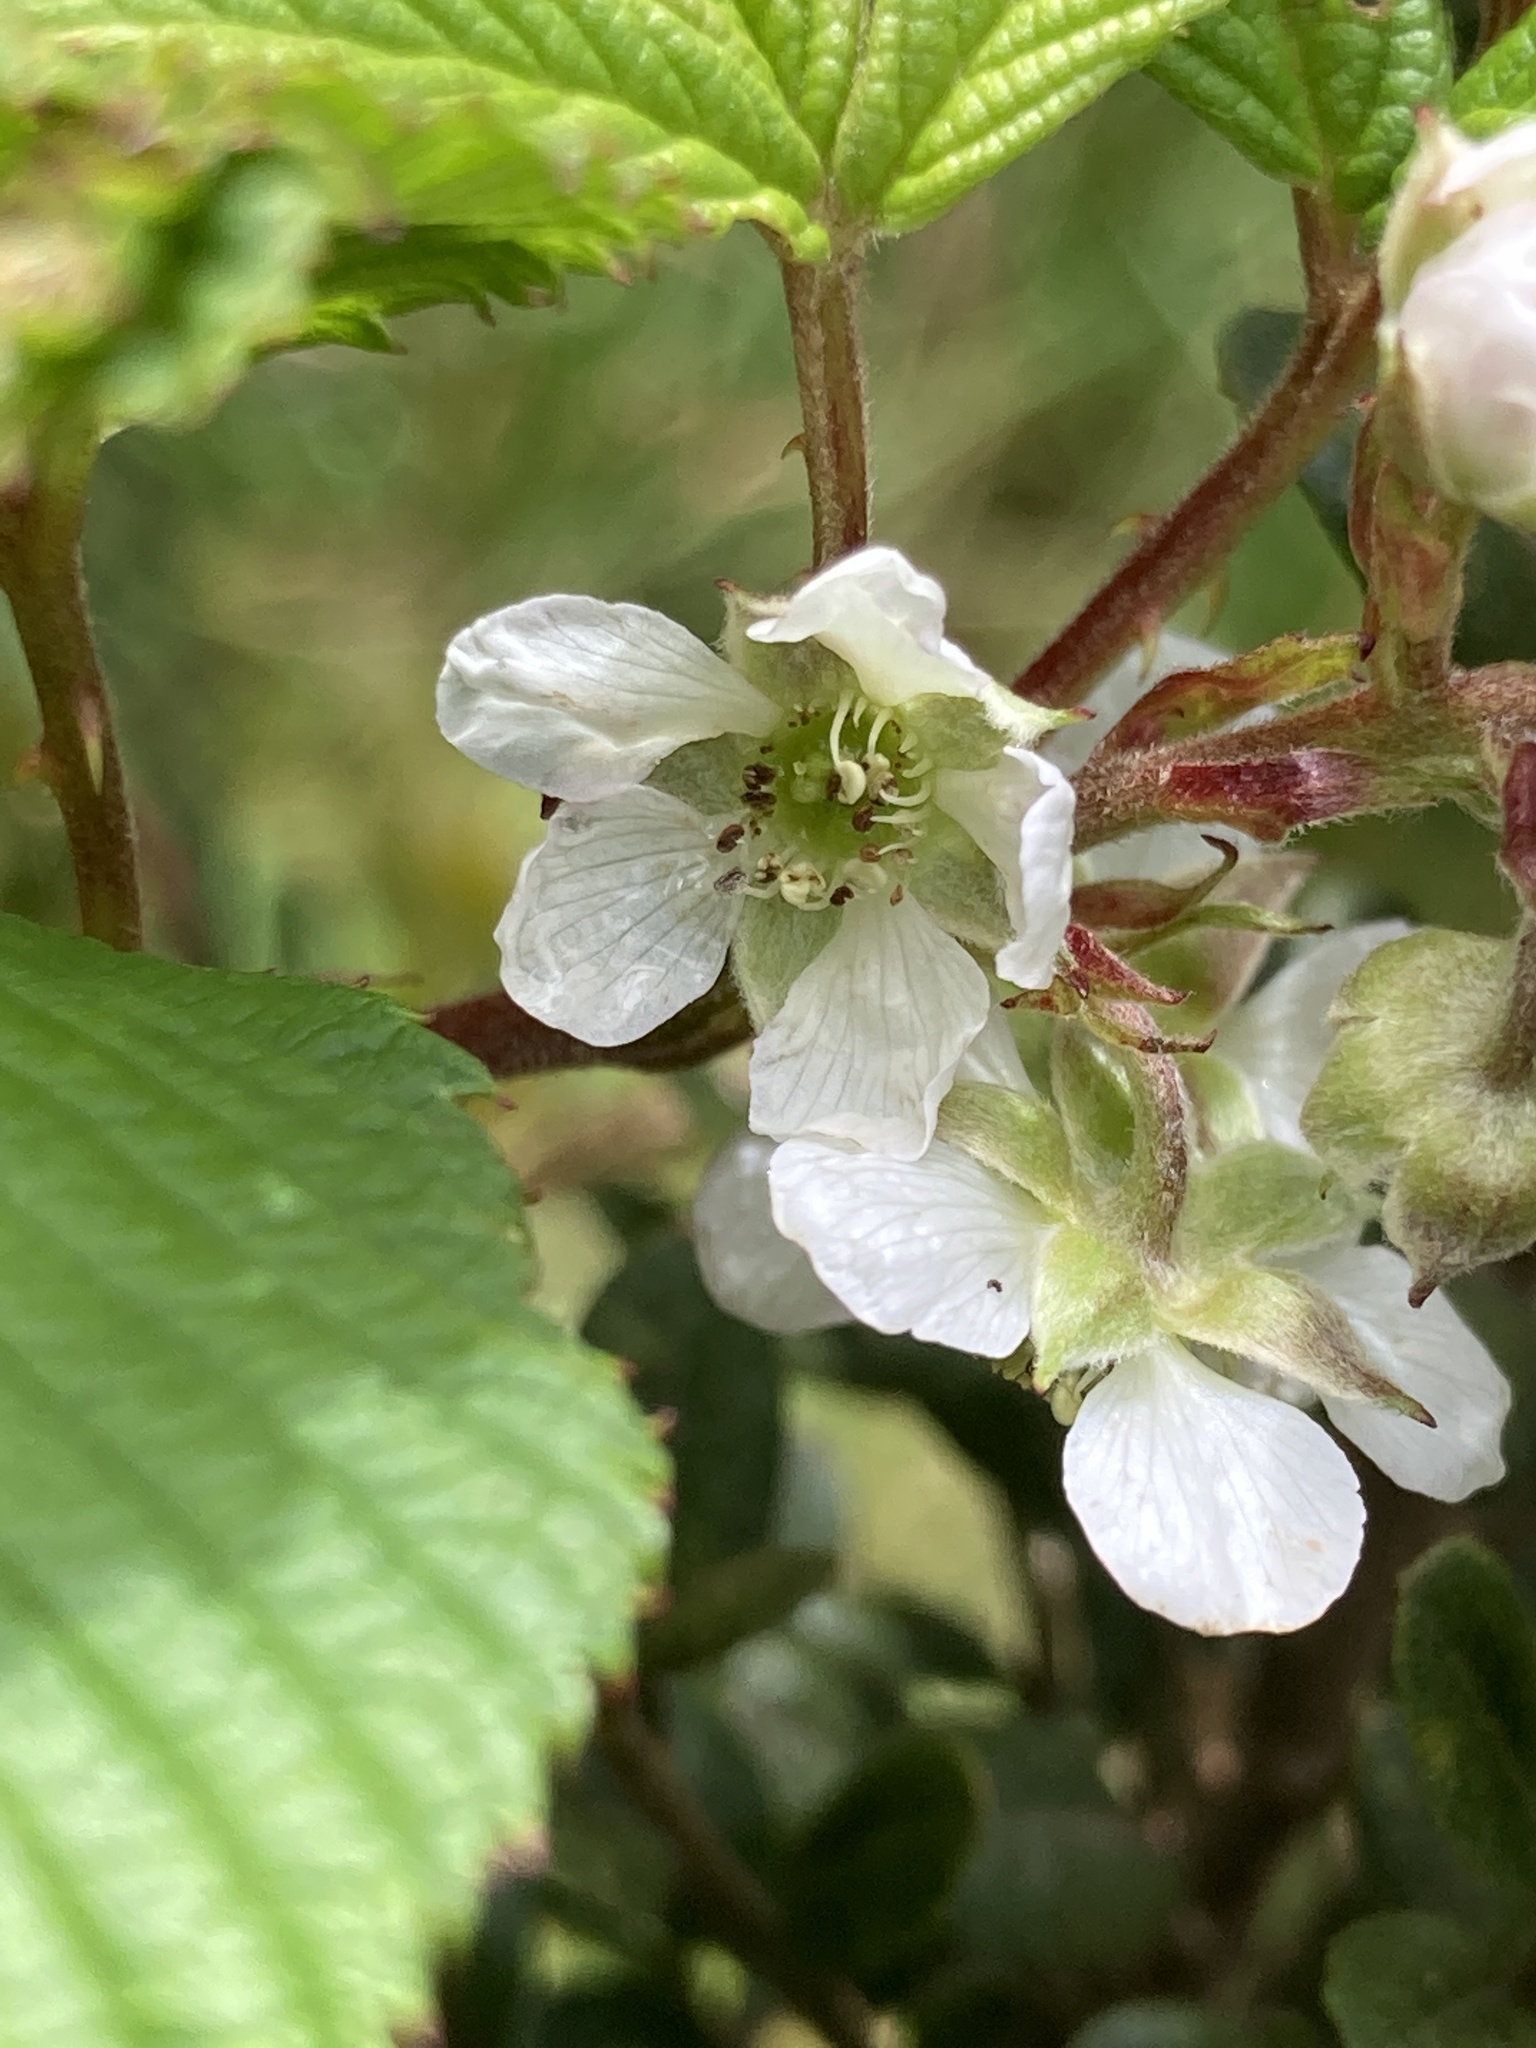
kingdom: Plantae
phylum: Tracheophyta
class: Magnoliopsida
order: Rosales
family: Rosaceae
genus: Rubus
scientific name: Rubus megalococcus
